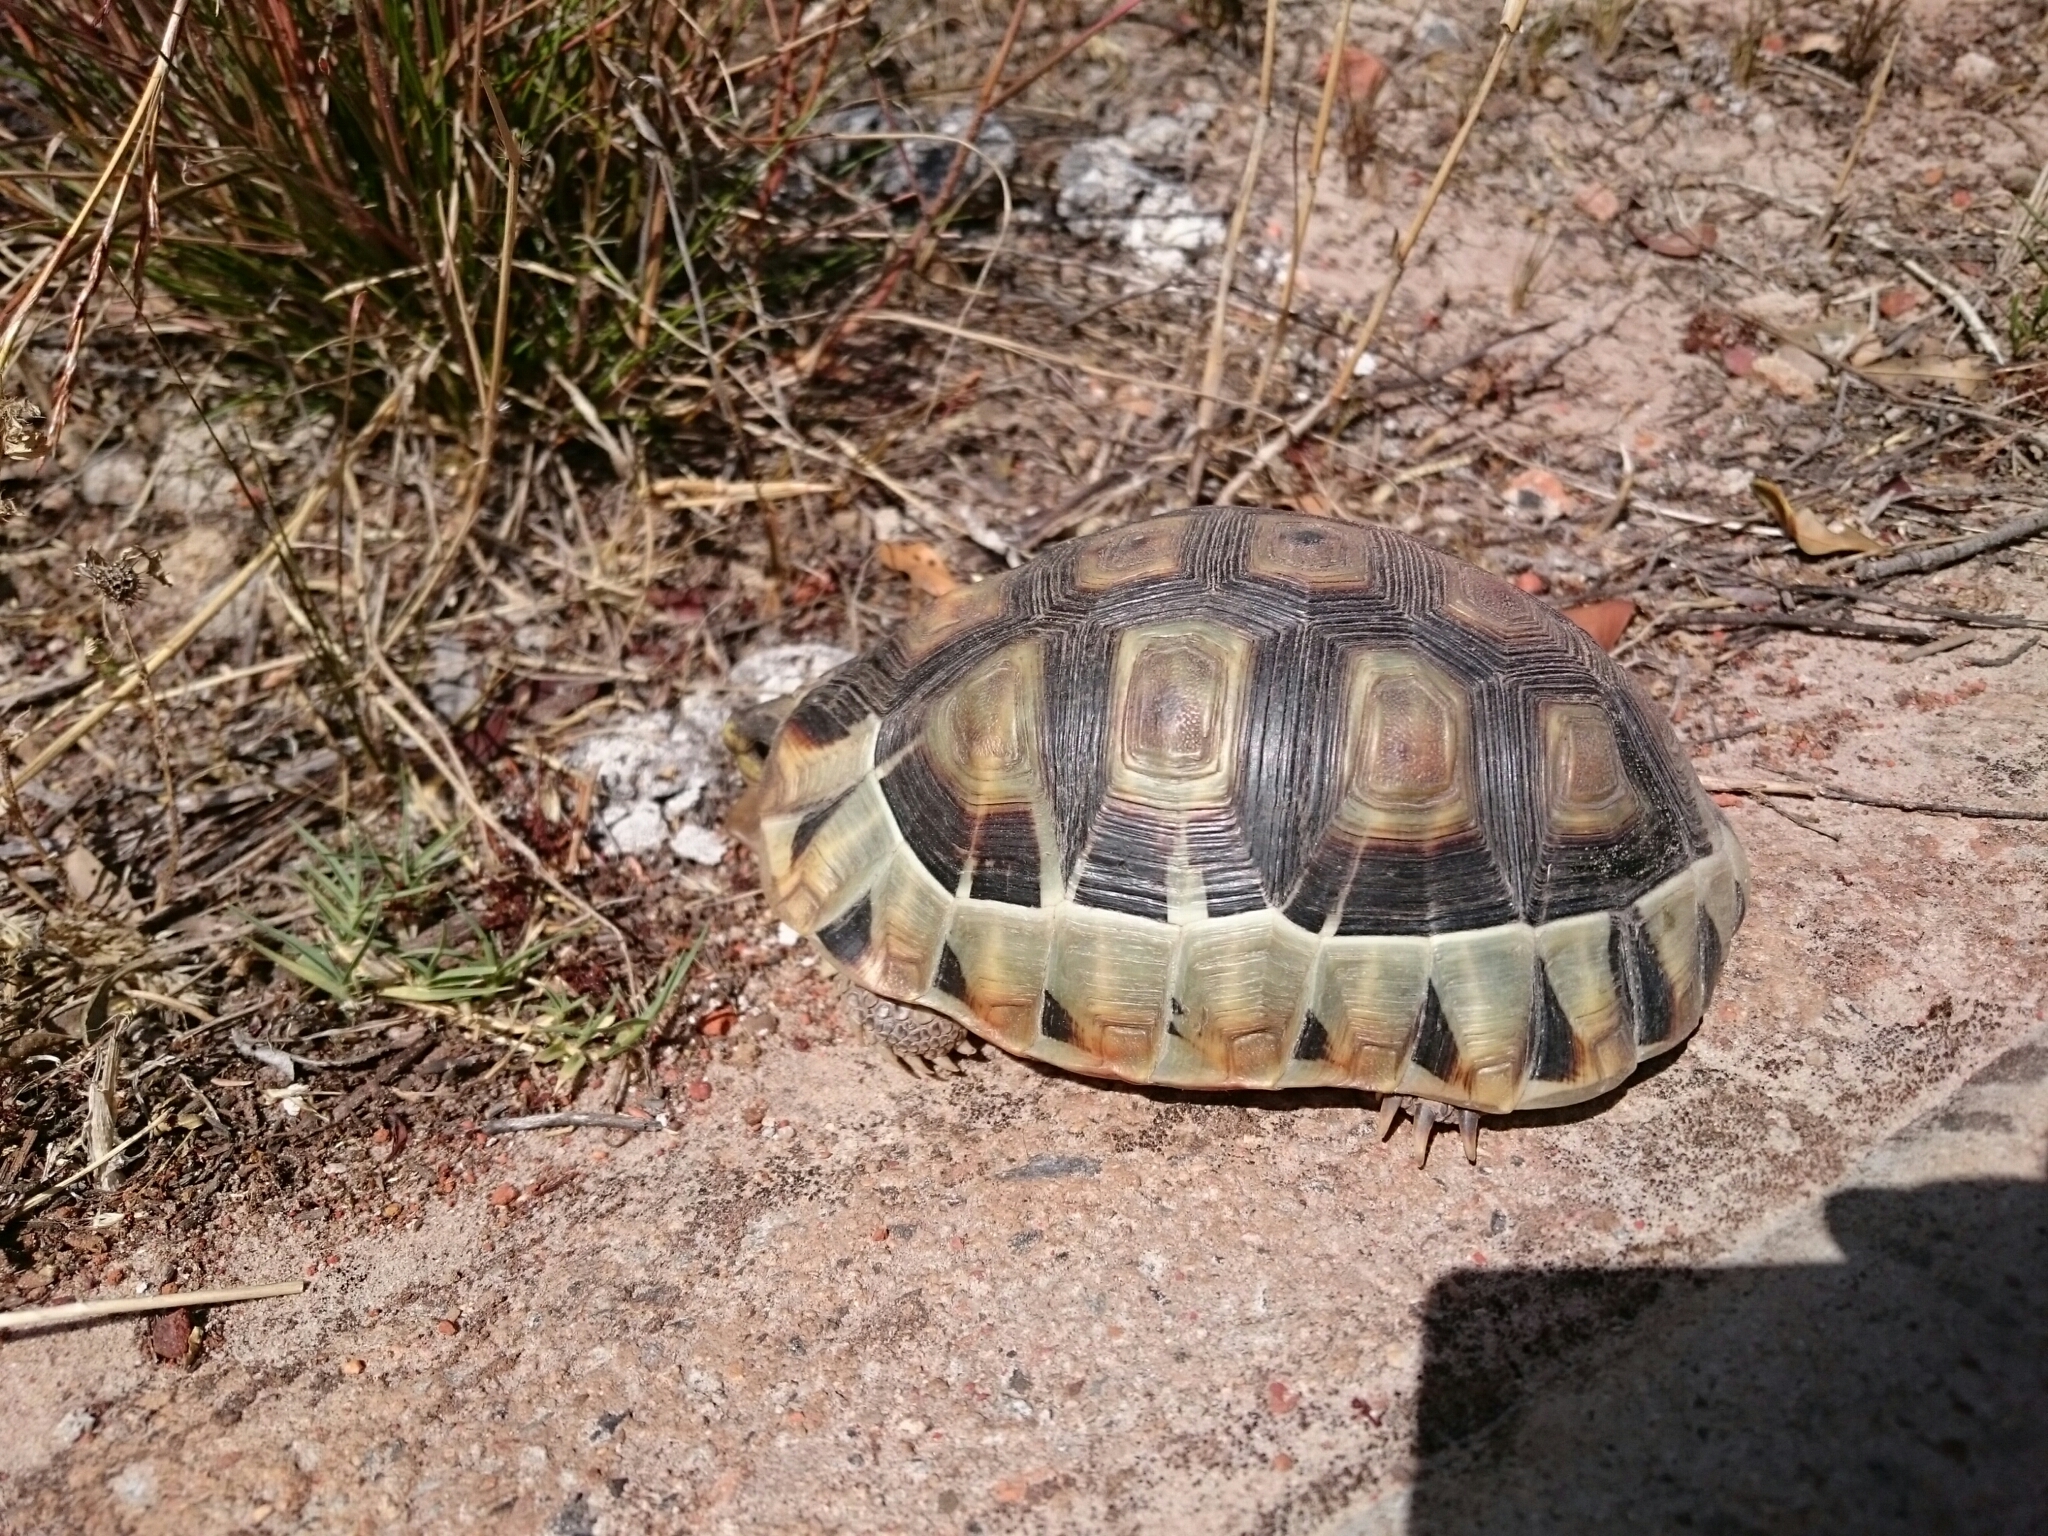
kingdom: Animalia
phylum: Chordata
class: Testudines
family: Testudinidae
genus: Chersina
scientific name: Chersina angulata
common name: South african bowsprit tortoise
